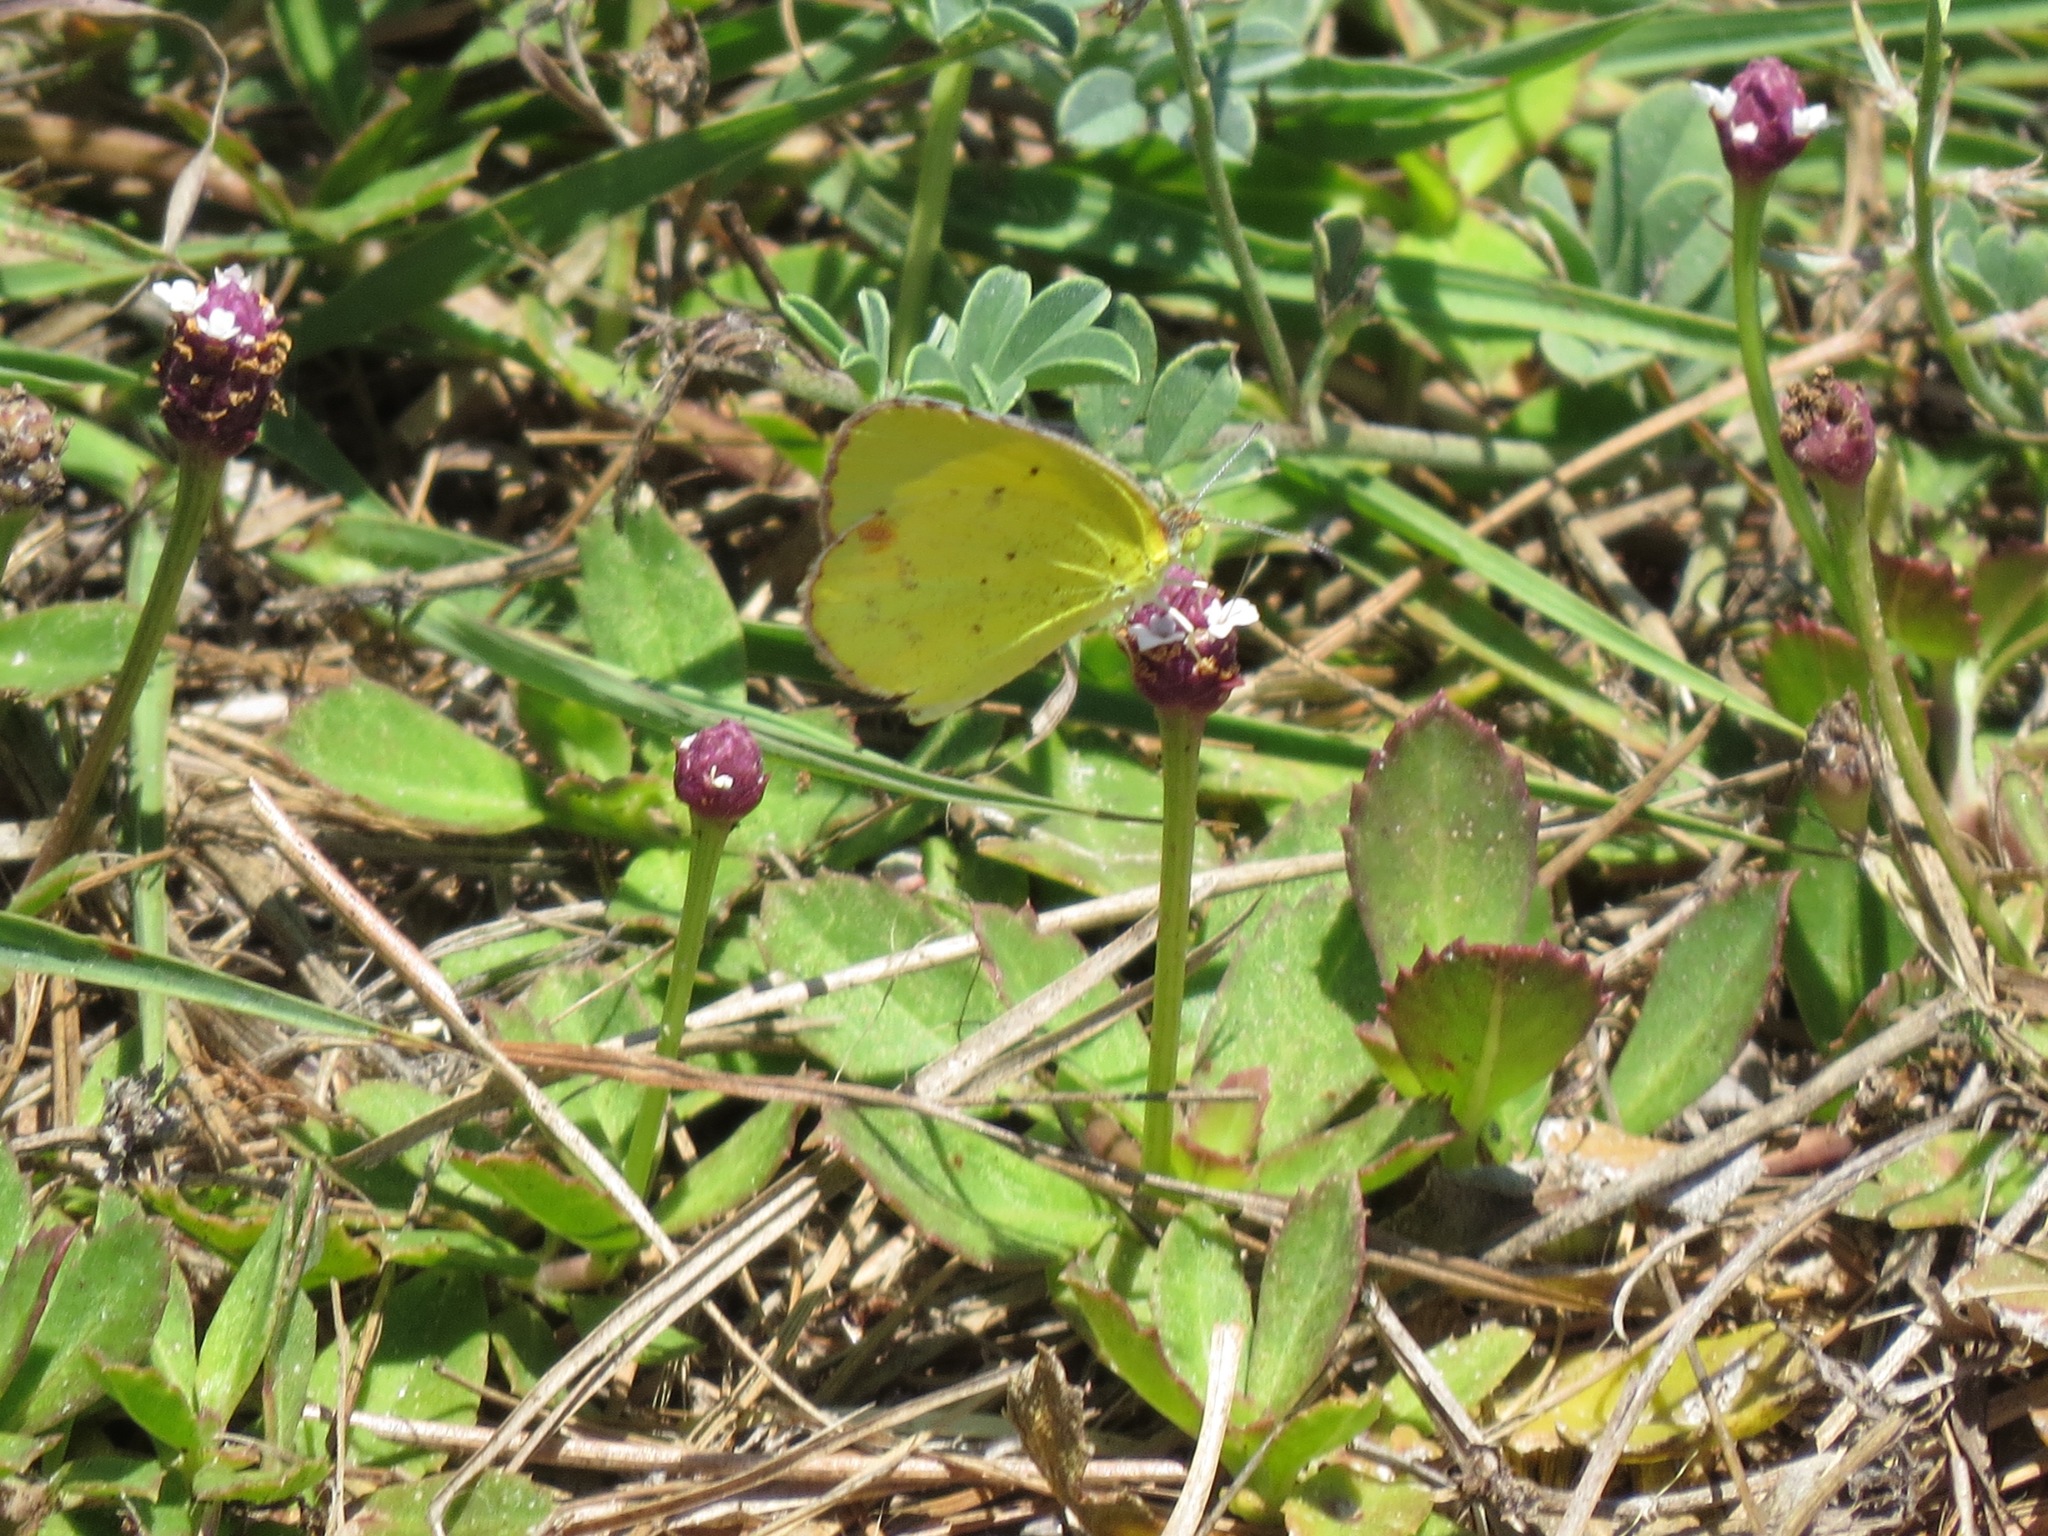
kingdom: Animalia
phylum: Arthropoda
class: Insecta
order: Lepidoptera
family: Pieridae
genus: Pyrisitia
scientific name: Pyrisitia lisa
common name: Little yellow
